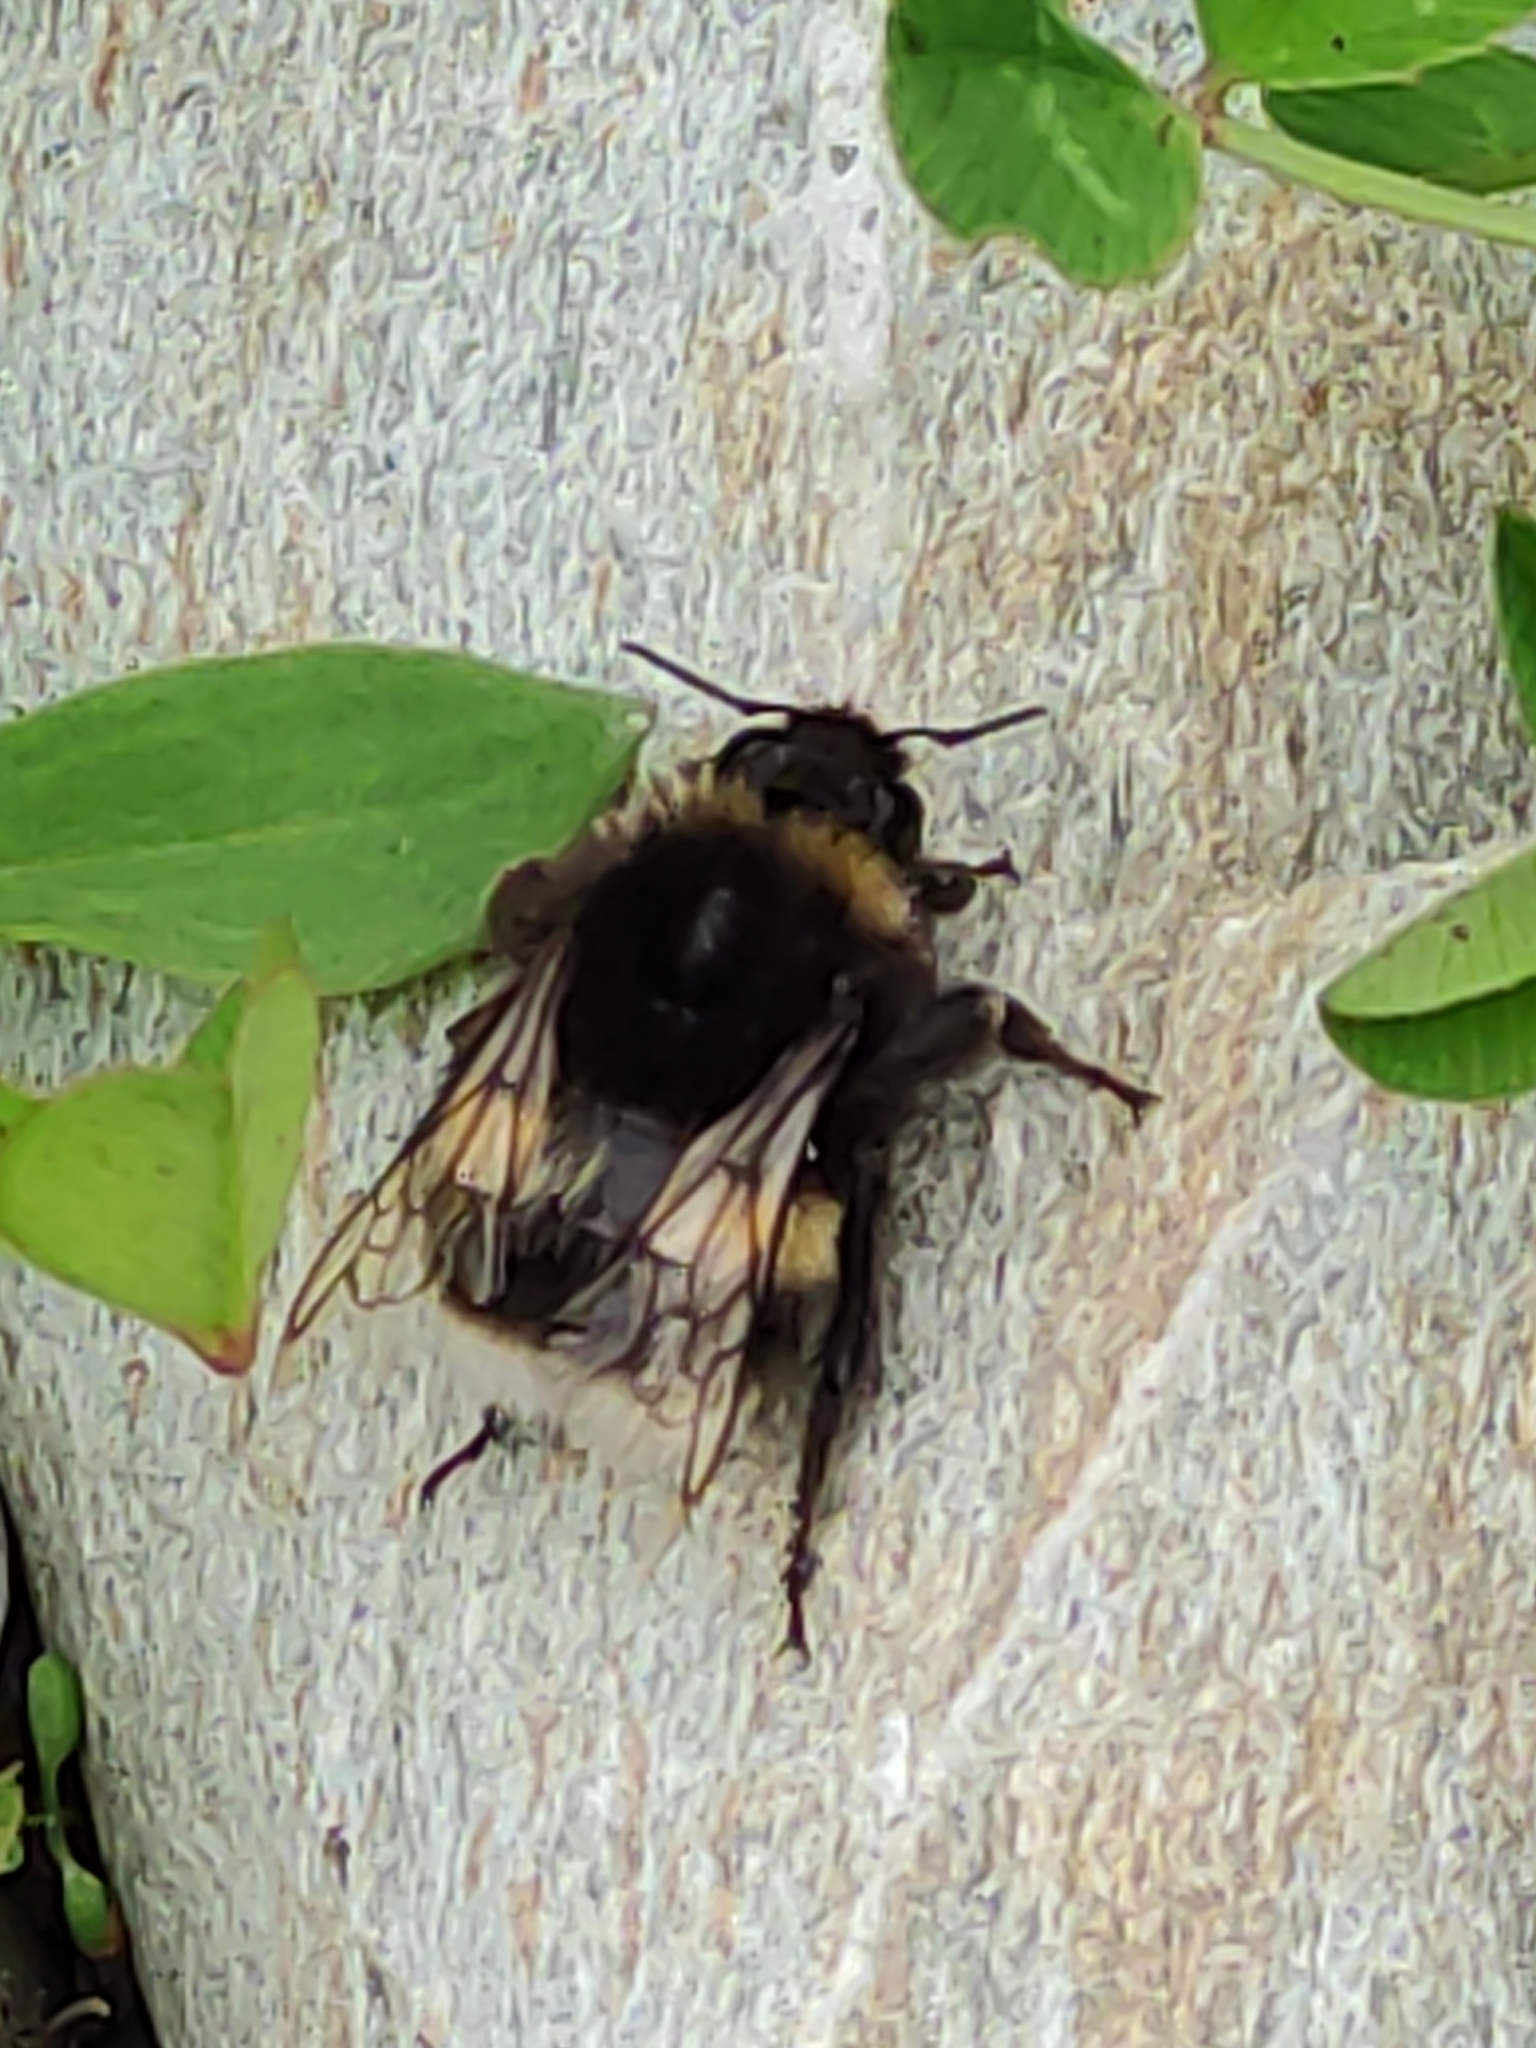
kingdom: Animalia
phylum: Arthropoda
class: Insecta
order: Hymenoptera
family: Apidae
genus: Bombus
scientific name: Bombus terrestris
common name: Buff-tailed bumblebee
